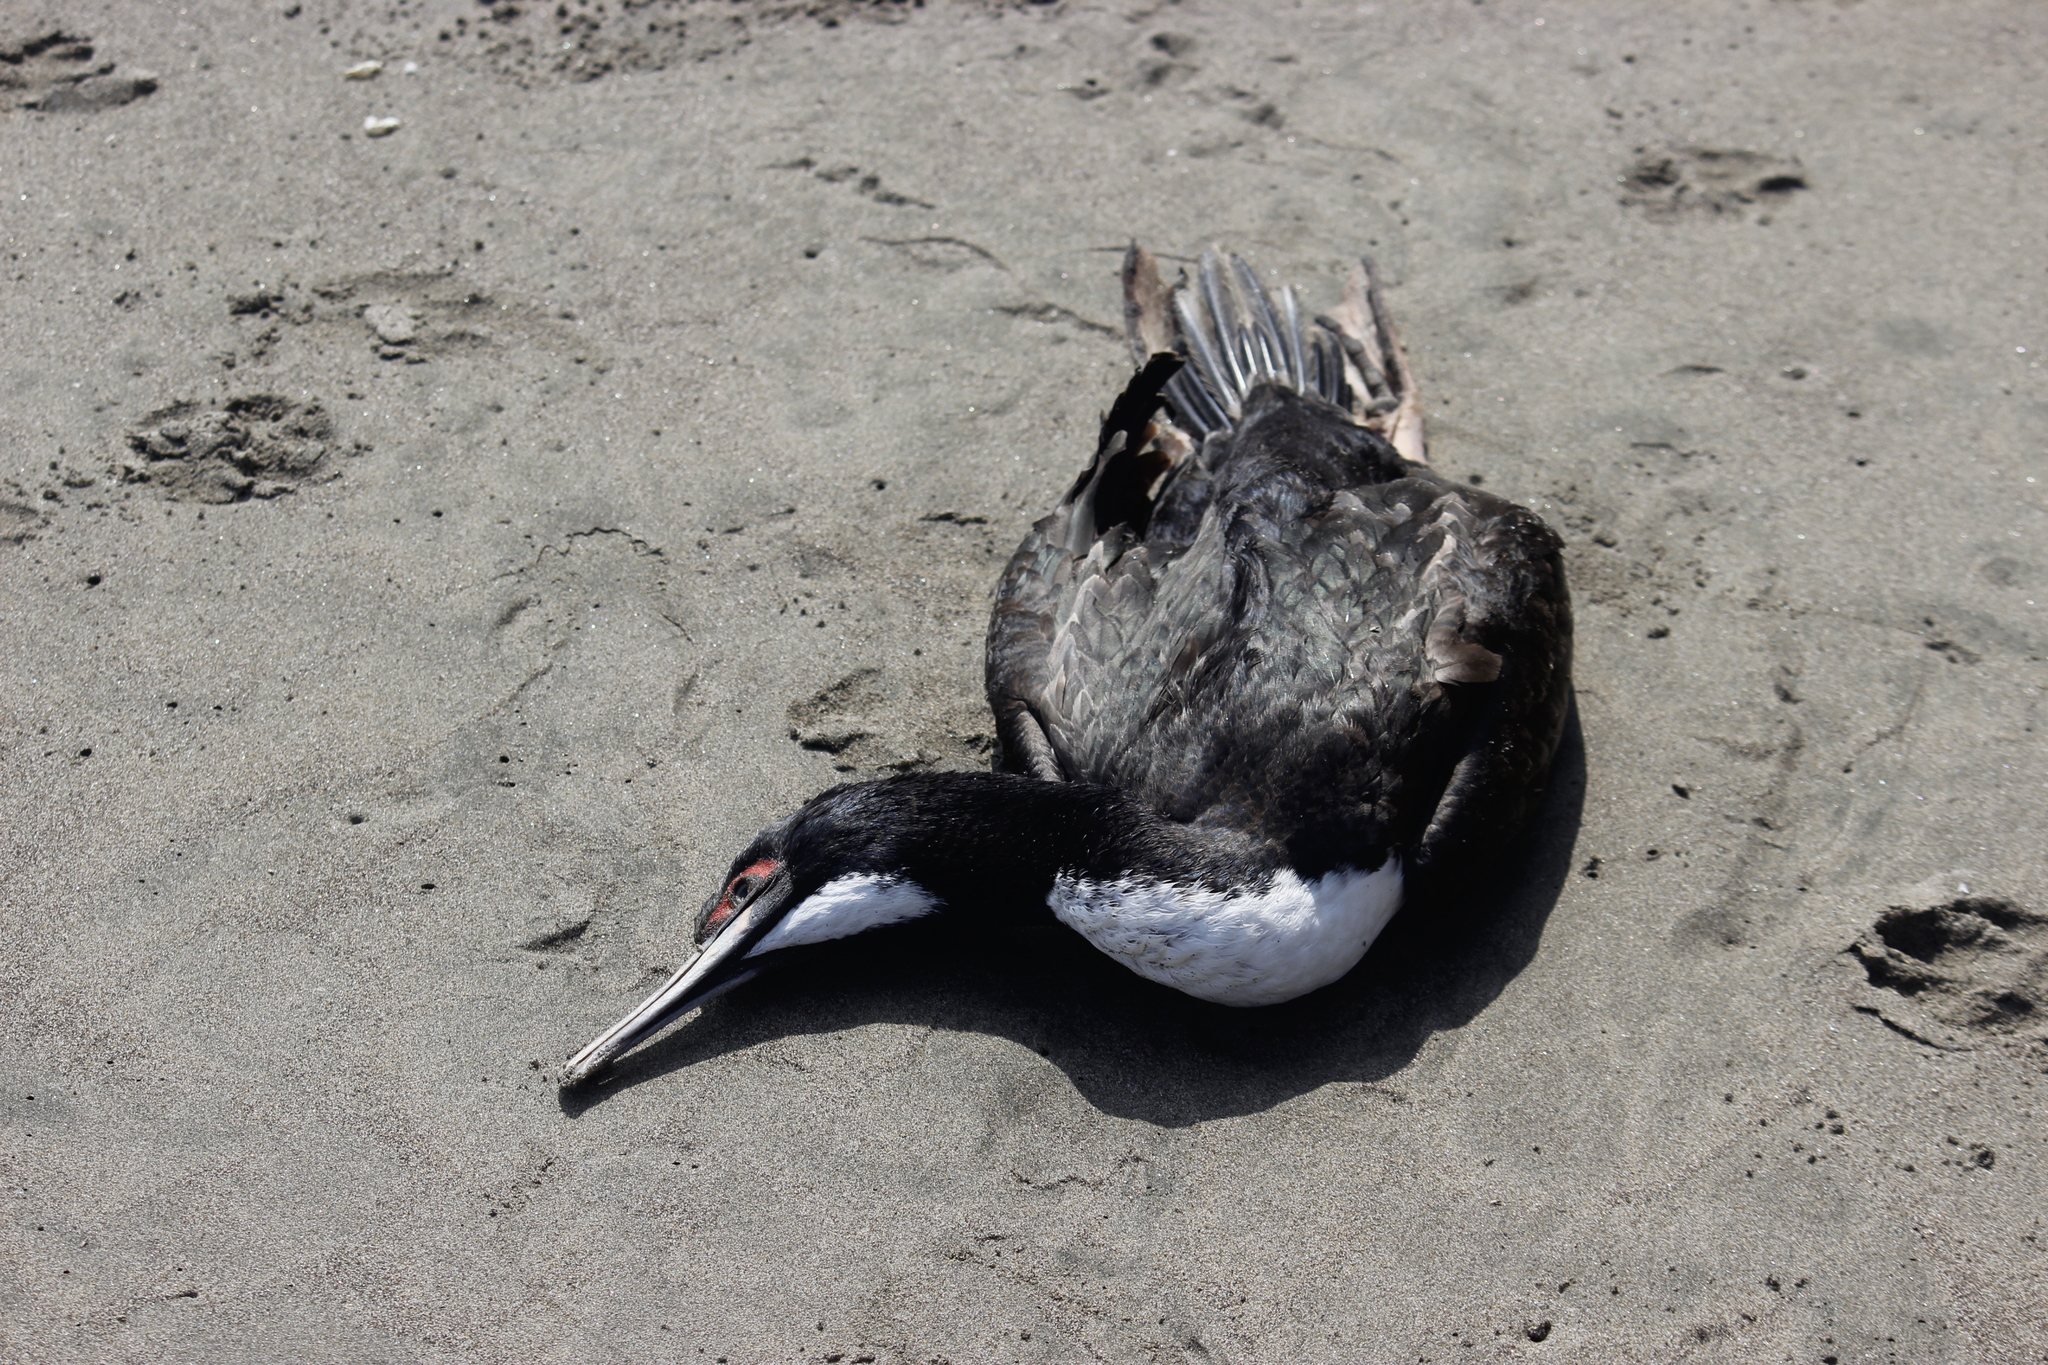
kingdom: Animalia
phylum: Chordata
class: Aves
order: Suliformes
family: Phalacrocoracidae
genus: Leucocarbo
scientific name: Leucocarbo bougainvillii
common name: Guanay cormorant
